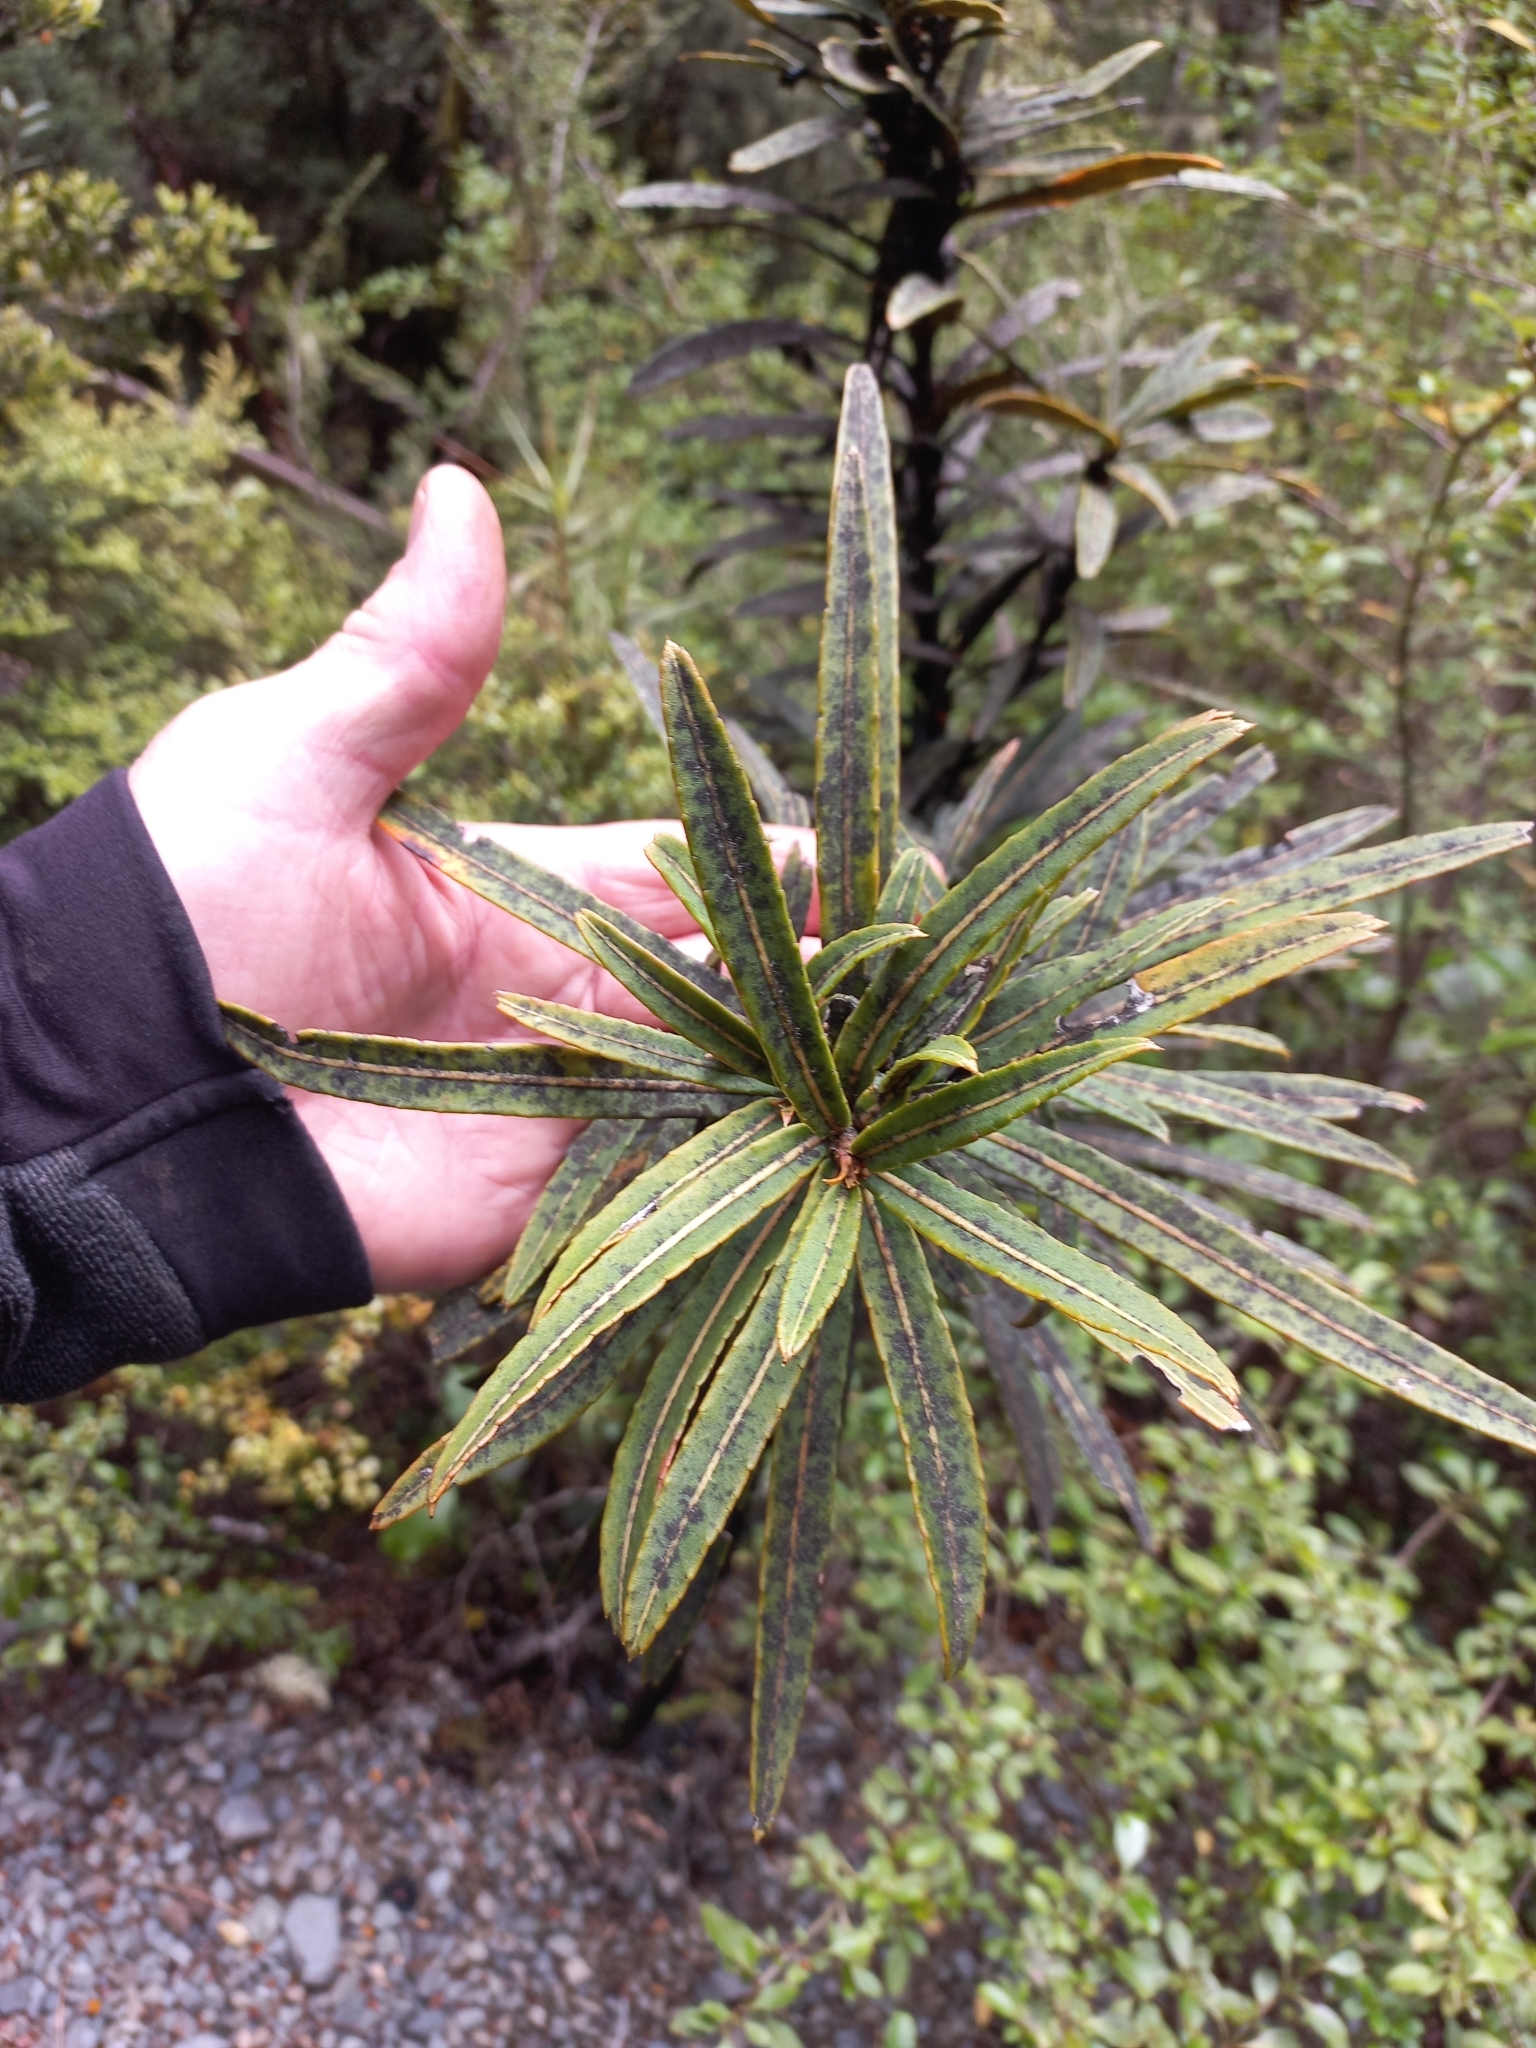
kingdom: Plantae
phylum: Tracheophyta
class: Magnoliopsida
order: Apiales
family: Araliaceae
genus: Pseudopanax
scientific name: Pseudopanax linearis
